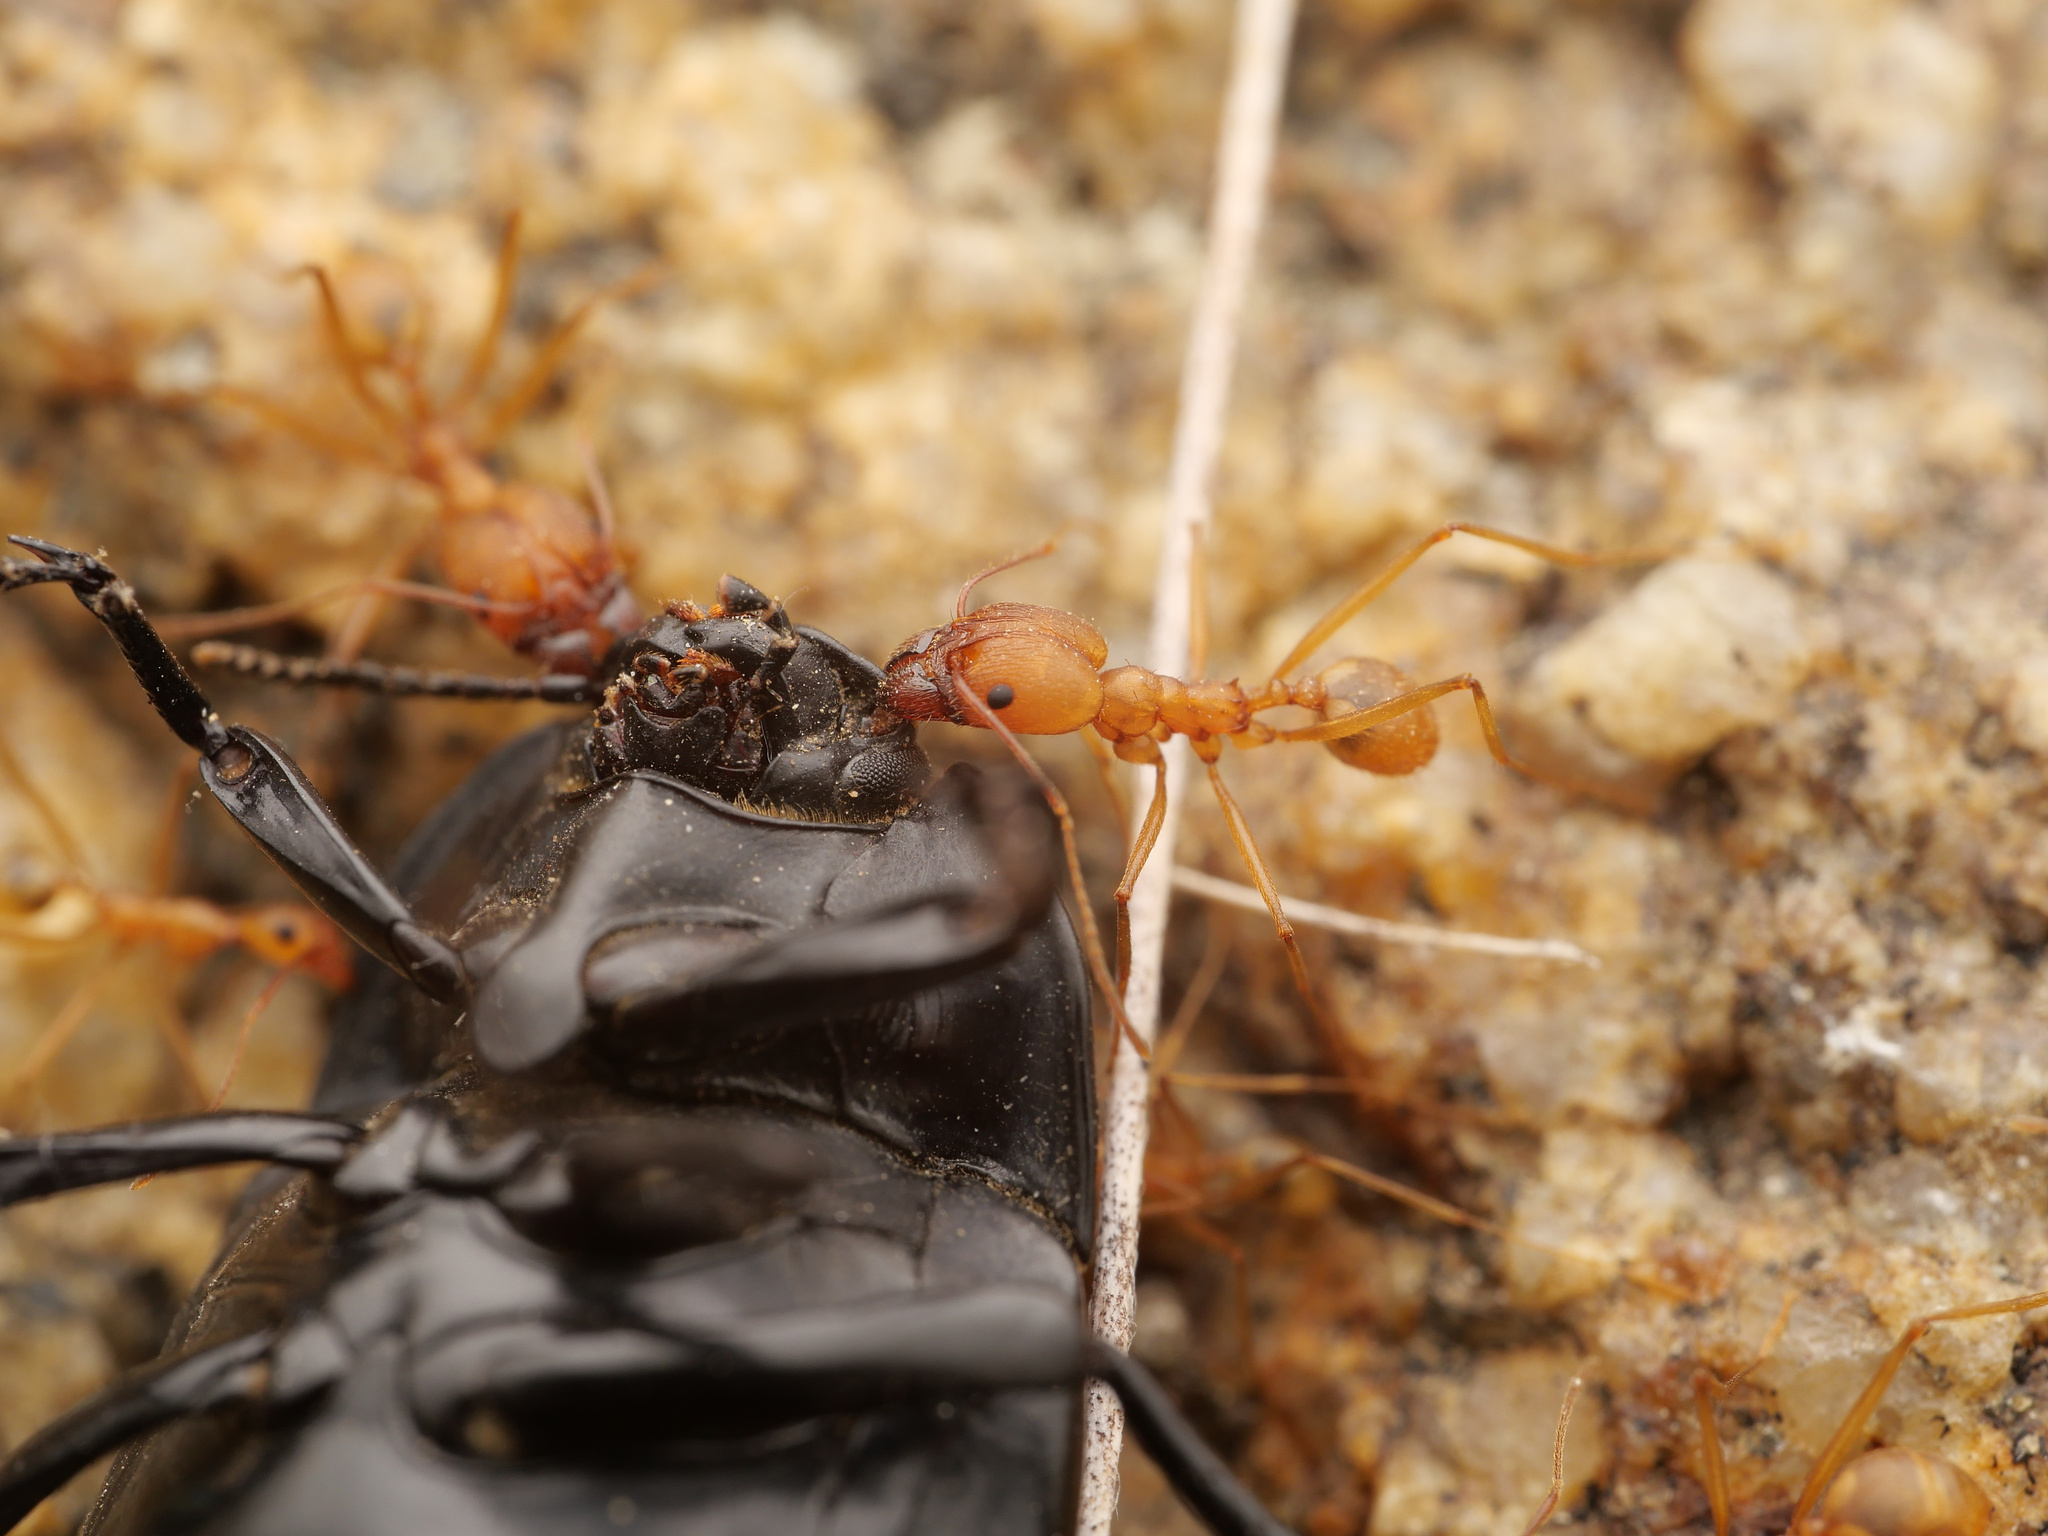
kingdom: Animalia
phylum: Arthropoda
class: Insecta
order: Hymenoptera
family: Formicidae
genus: Pheidole
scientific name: Pheidole vistana
